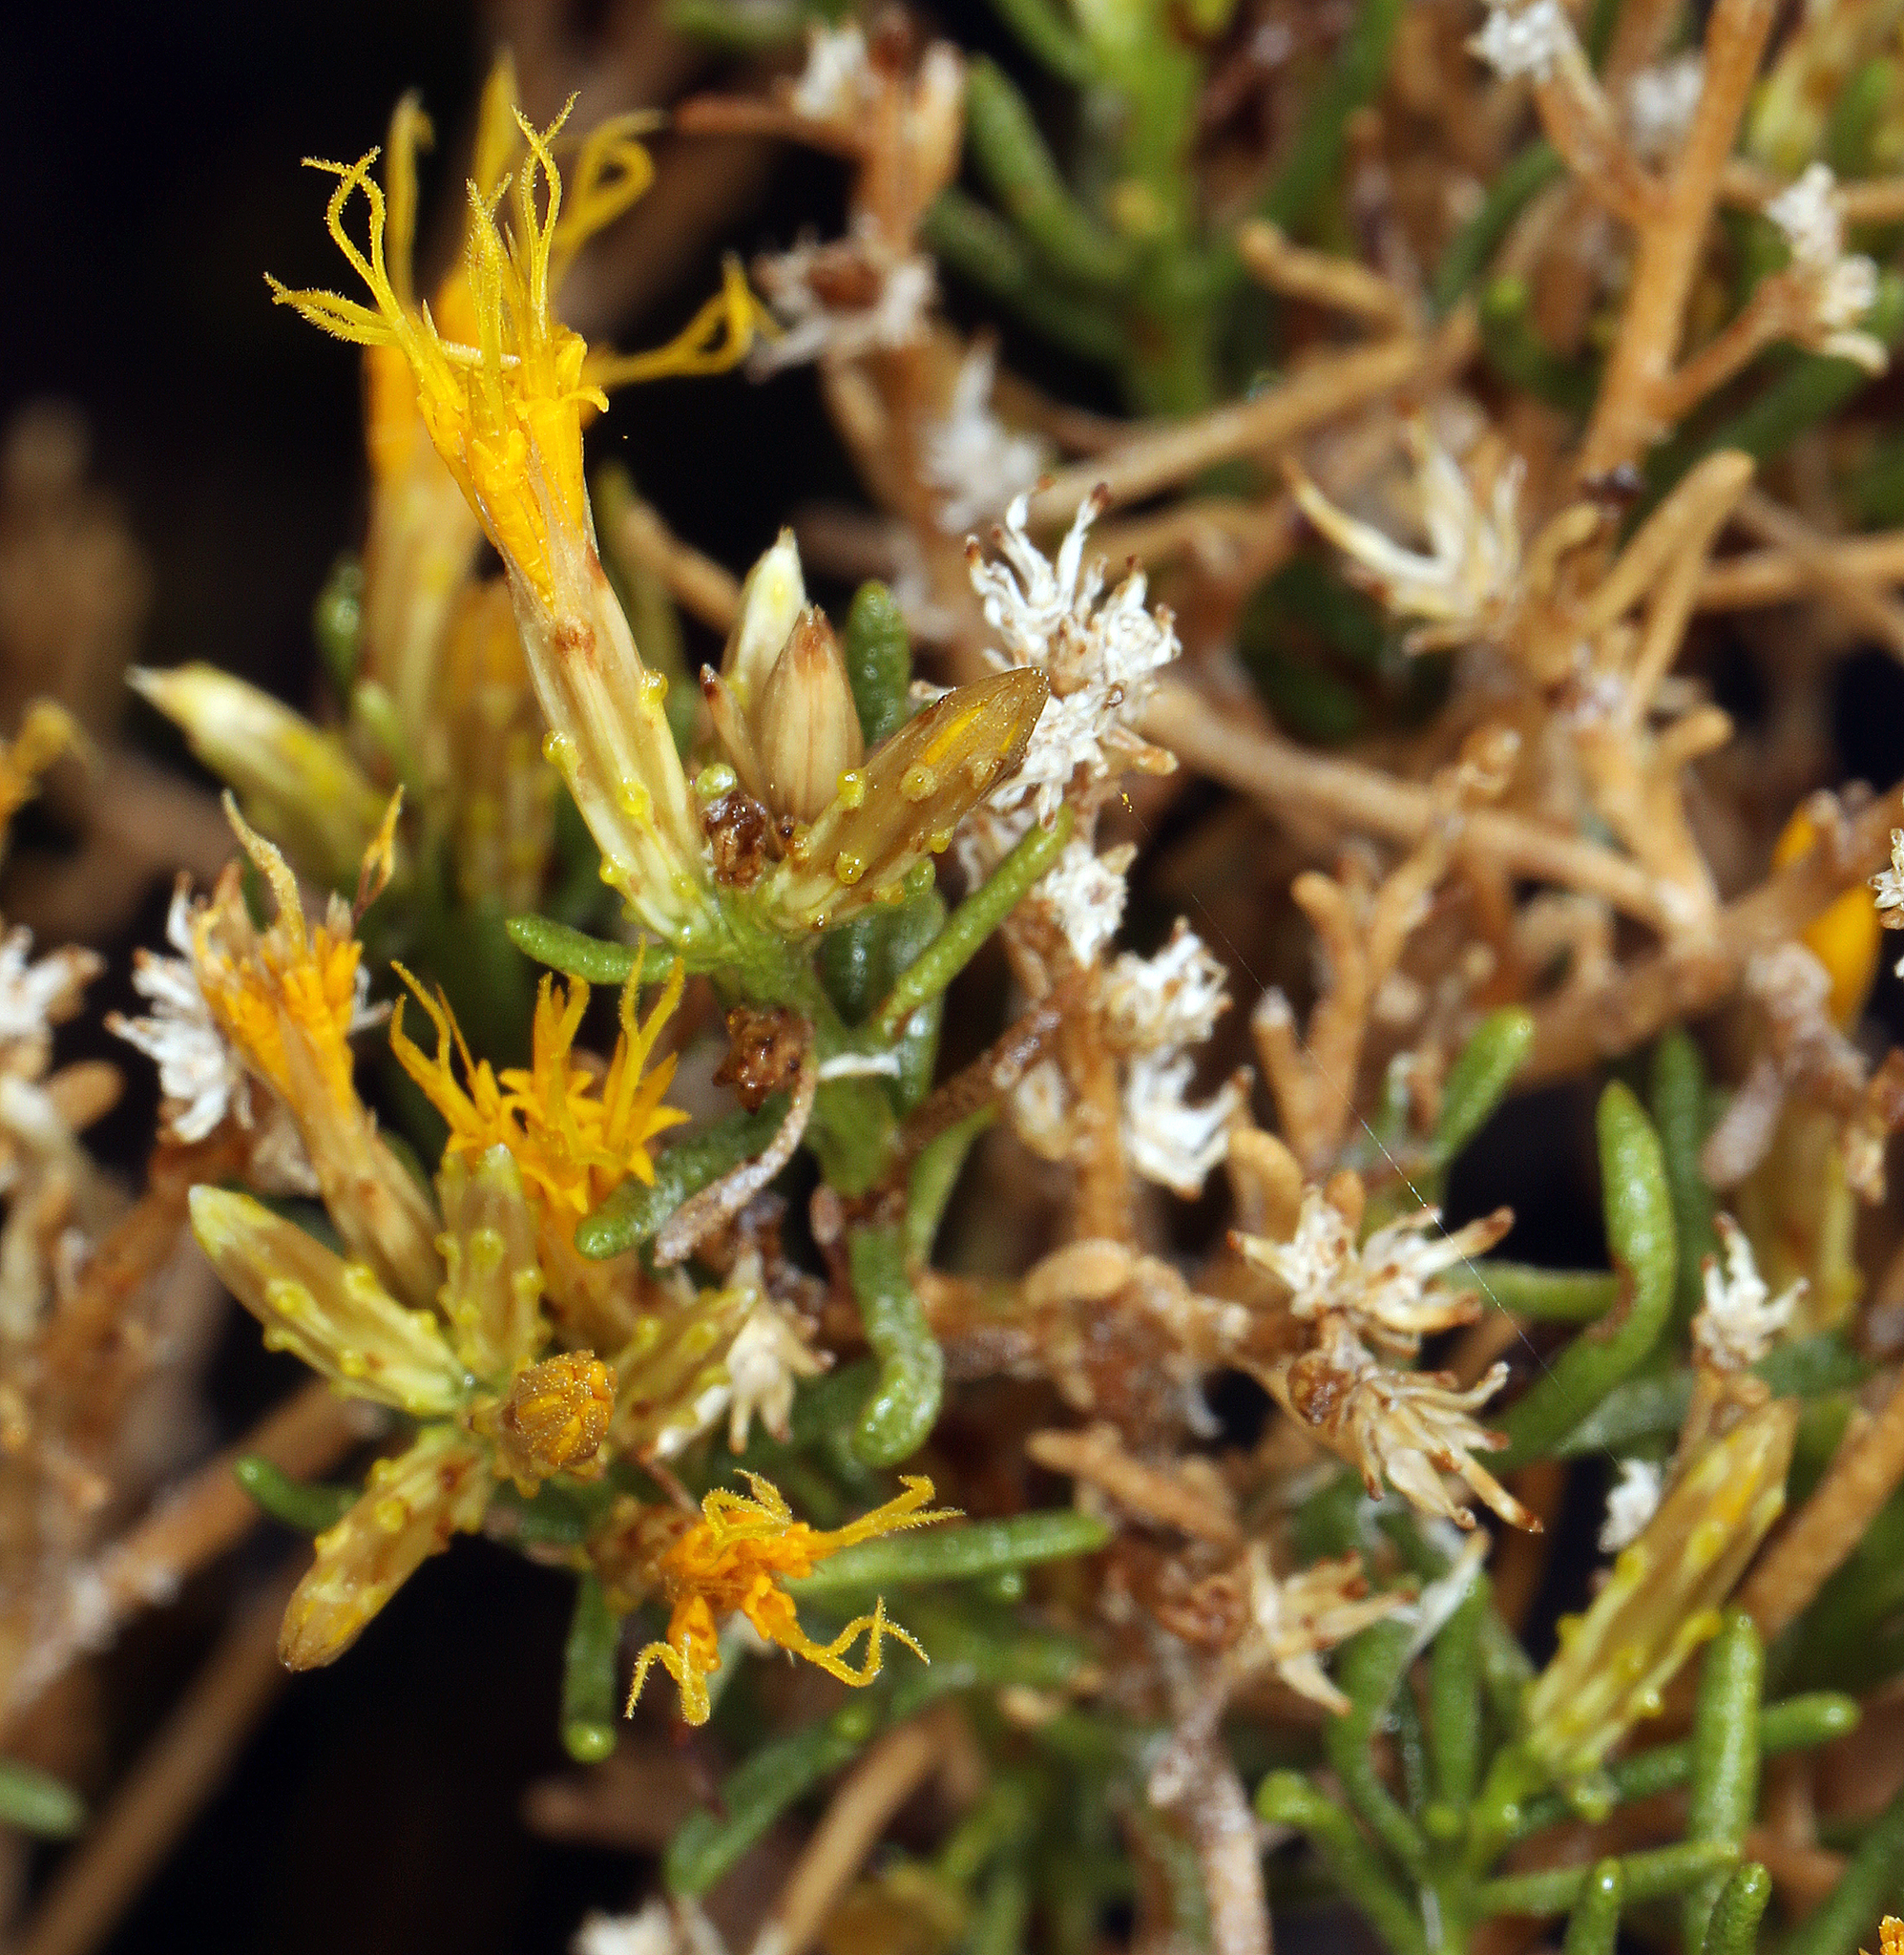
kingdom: Plantae
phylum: Tracheophyta
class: Magnoliopsida
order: Asterales
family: Asteraceae
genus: Ericameria
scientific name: Ericameria teretifolia
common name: Round-leaf rabbitbrush
